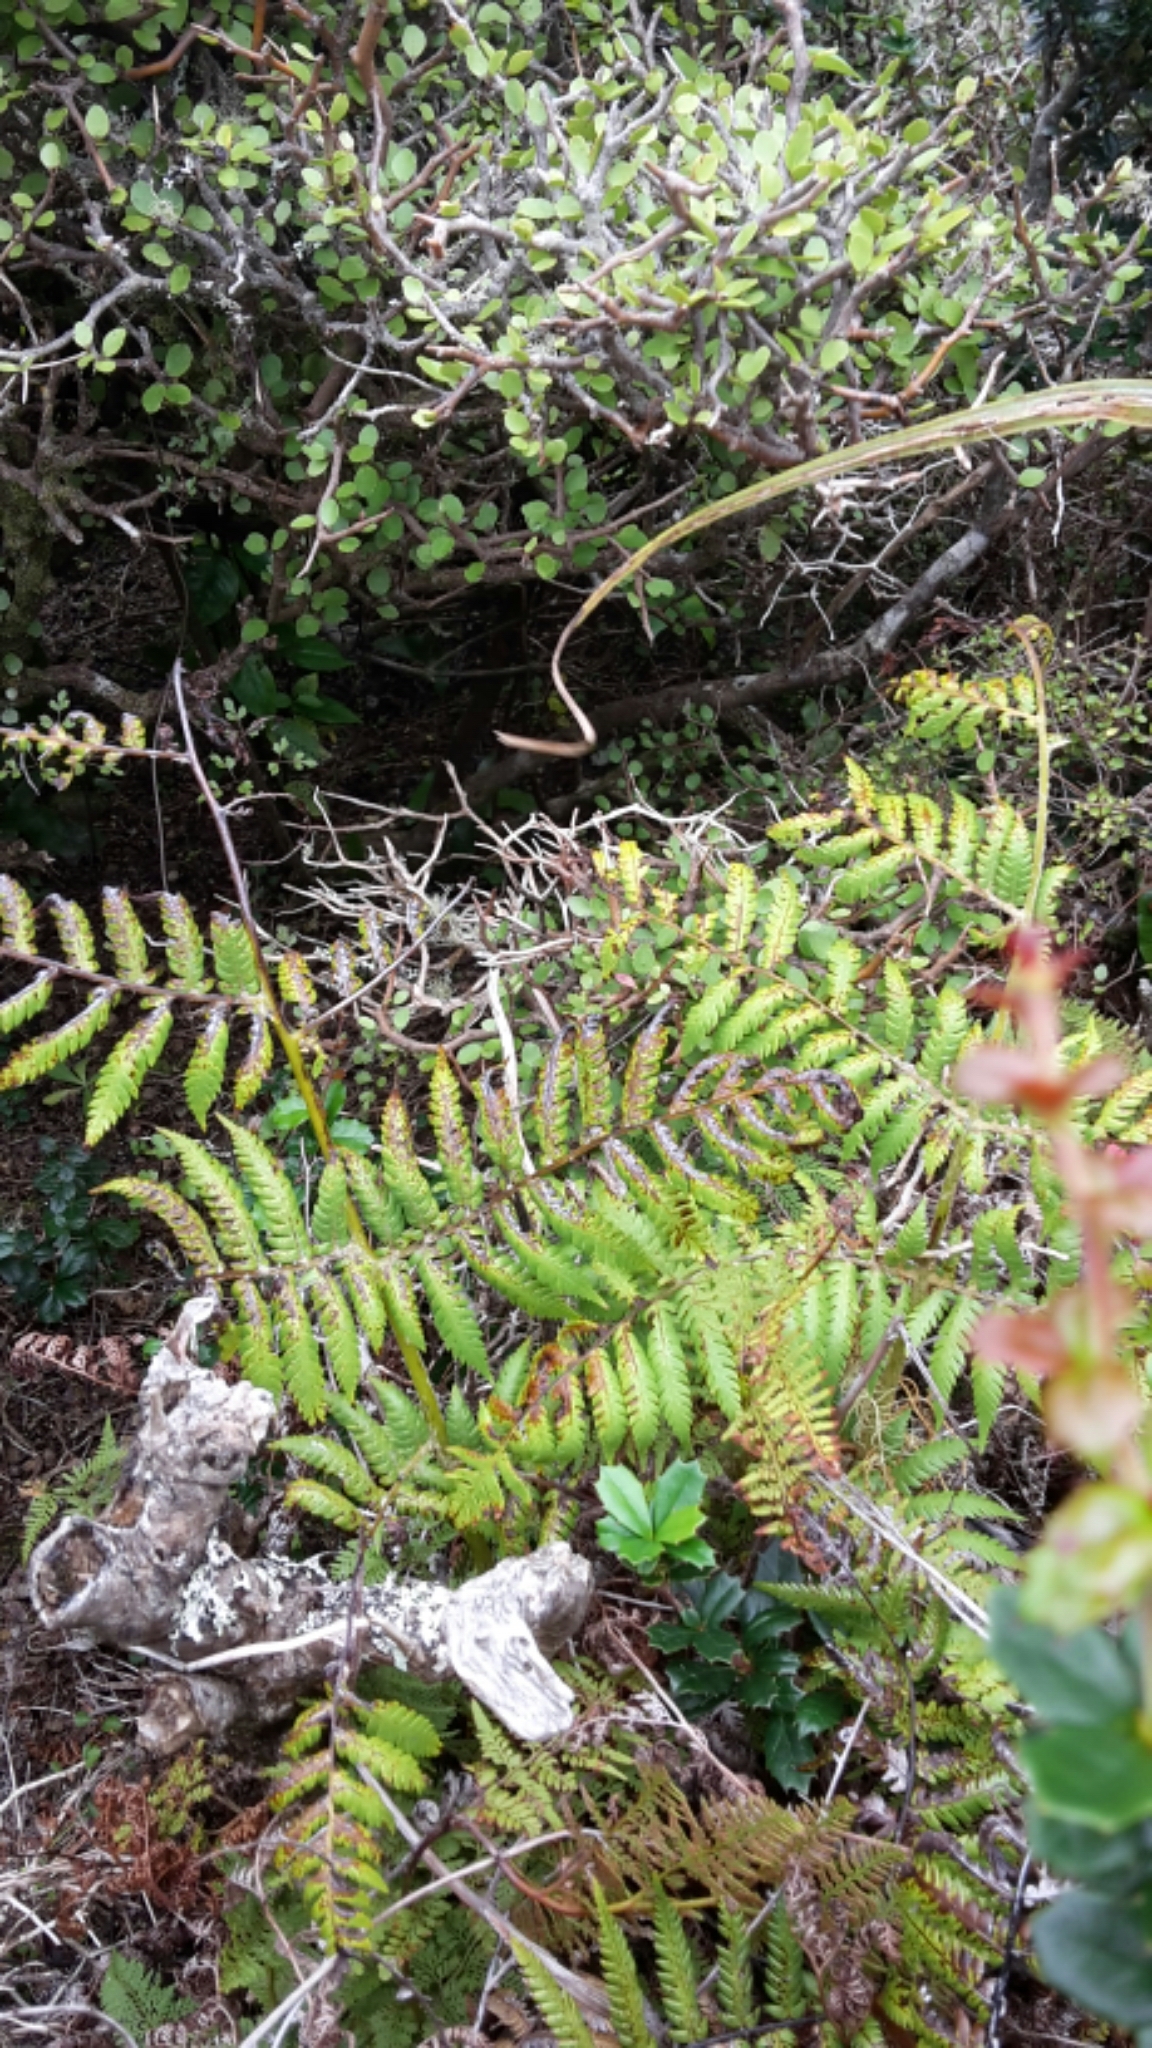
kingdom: Plantae
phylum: Tracheophyta
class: Polypodiopsida
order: Cyatheales
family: Cyatheaceae
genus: Alsophila
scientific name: Alsophila dealbata
